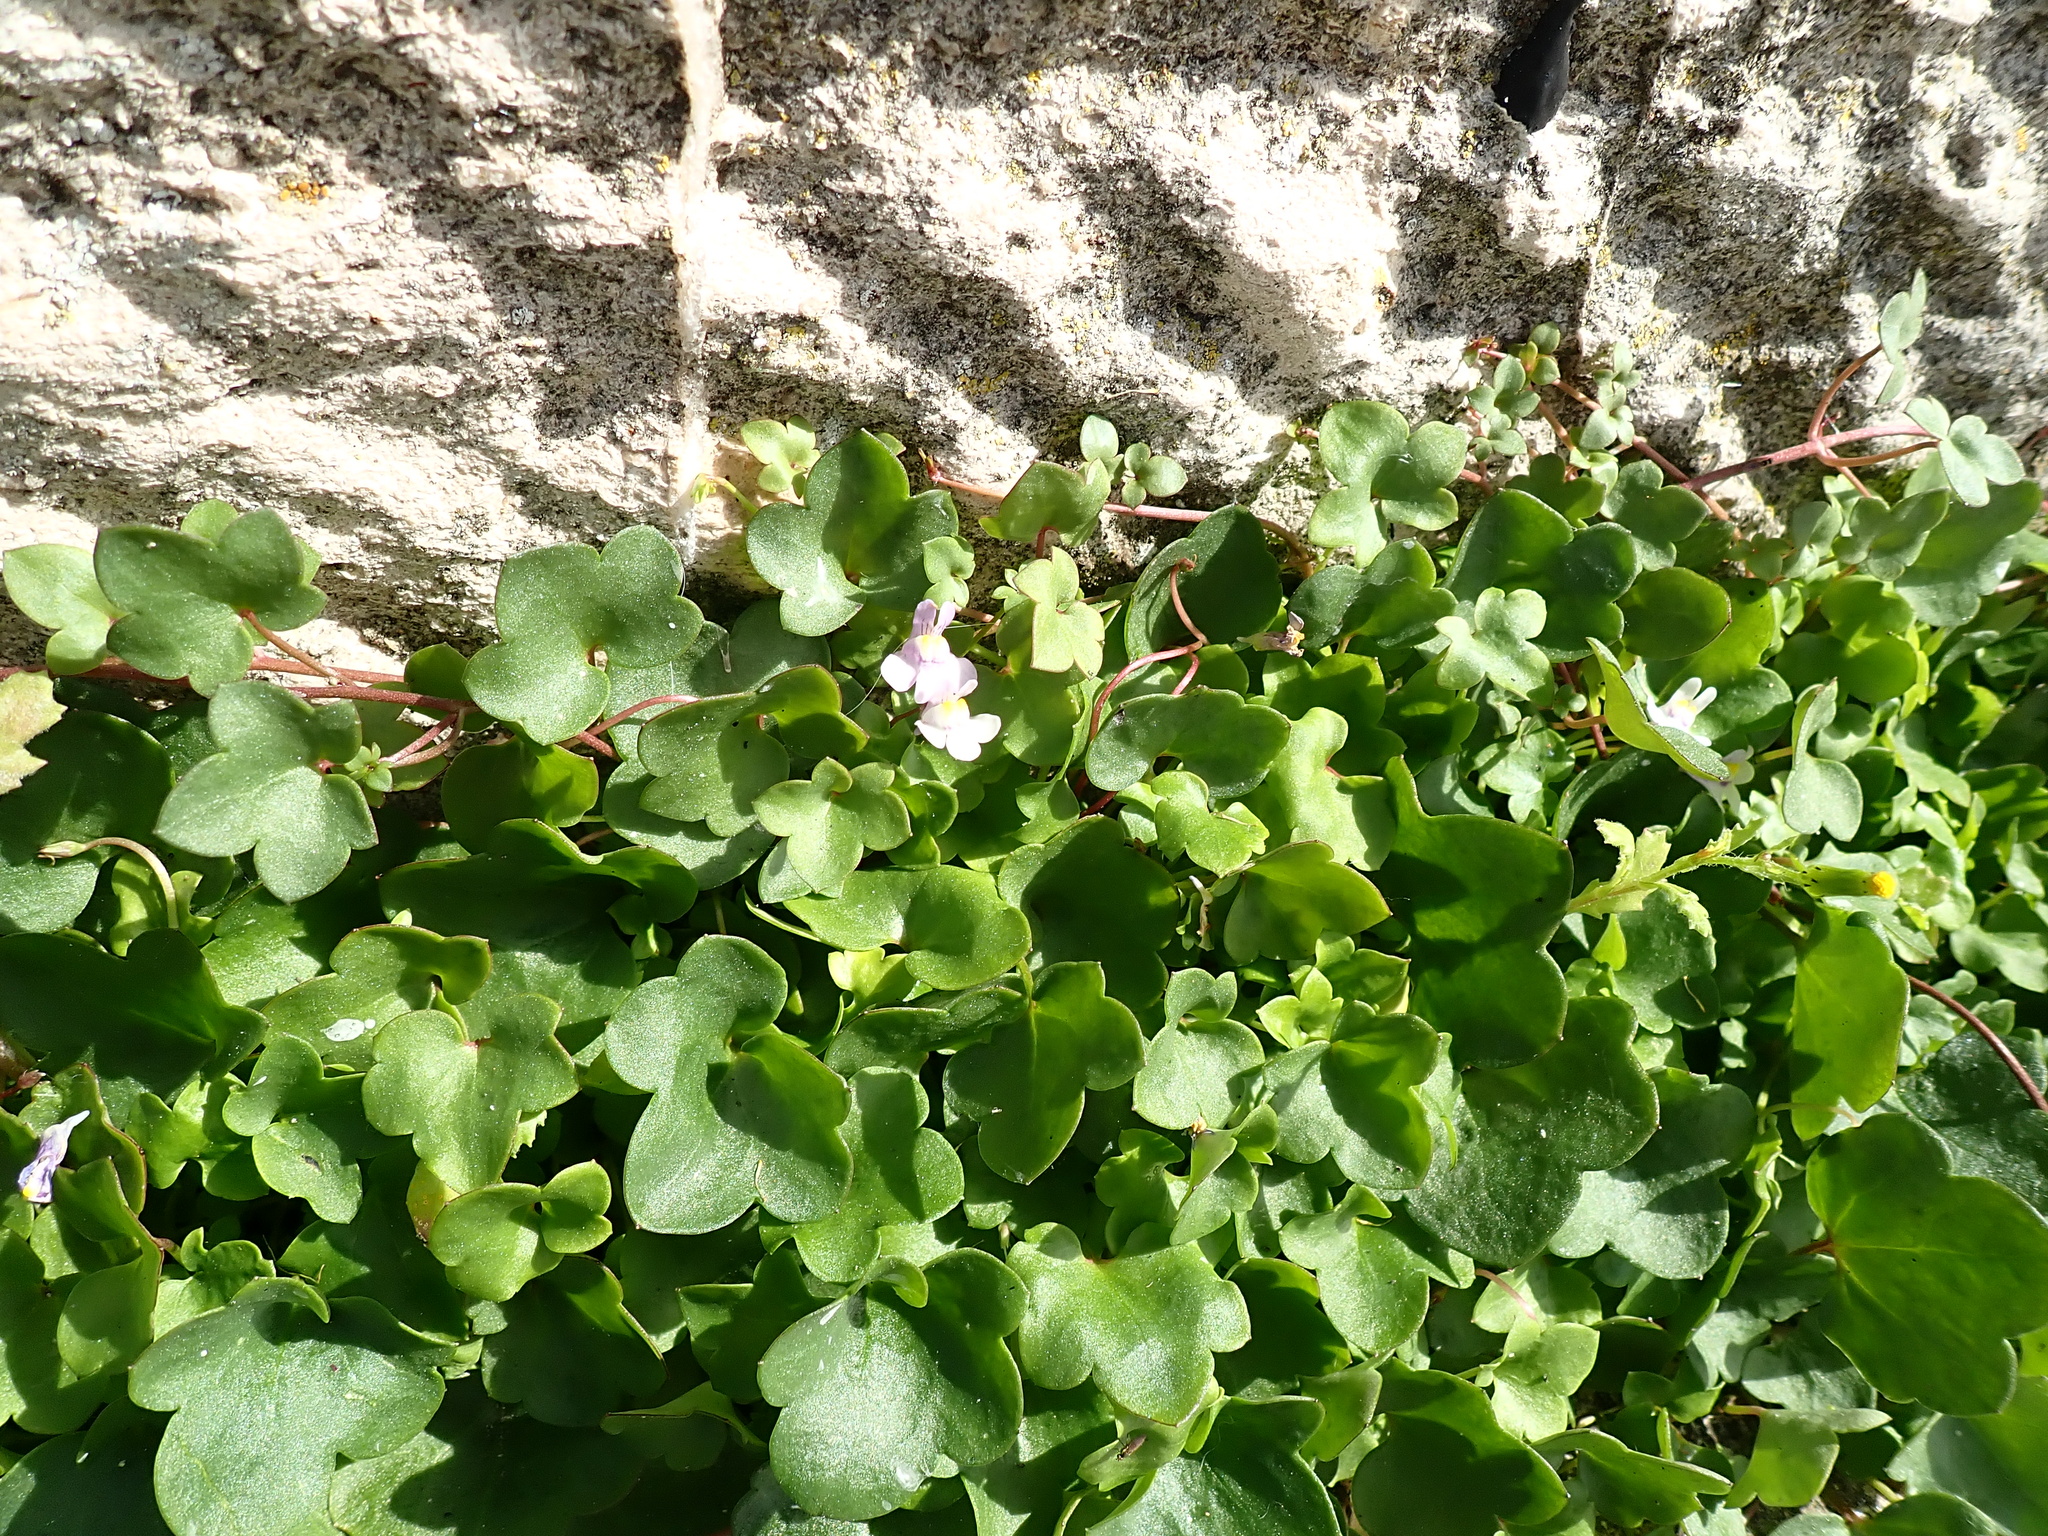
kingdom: Plantae
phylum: Tracheophyta
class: Magnoliopsida
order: Lamiales
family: Plantaginaceae
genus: Cymbalaria
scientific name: Cymbalaria muralis
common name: Ivy-leaved toadflax
